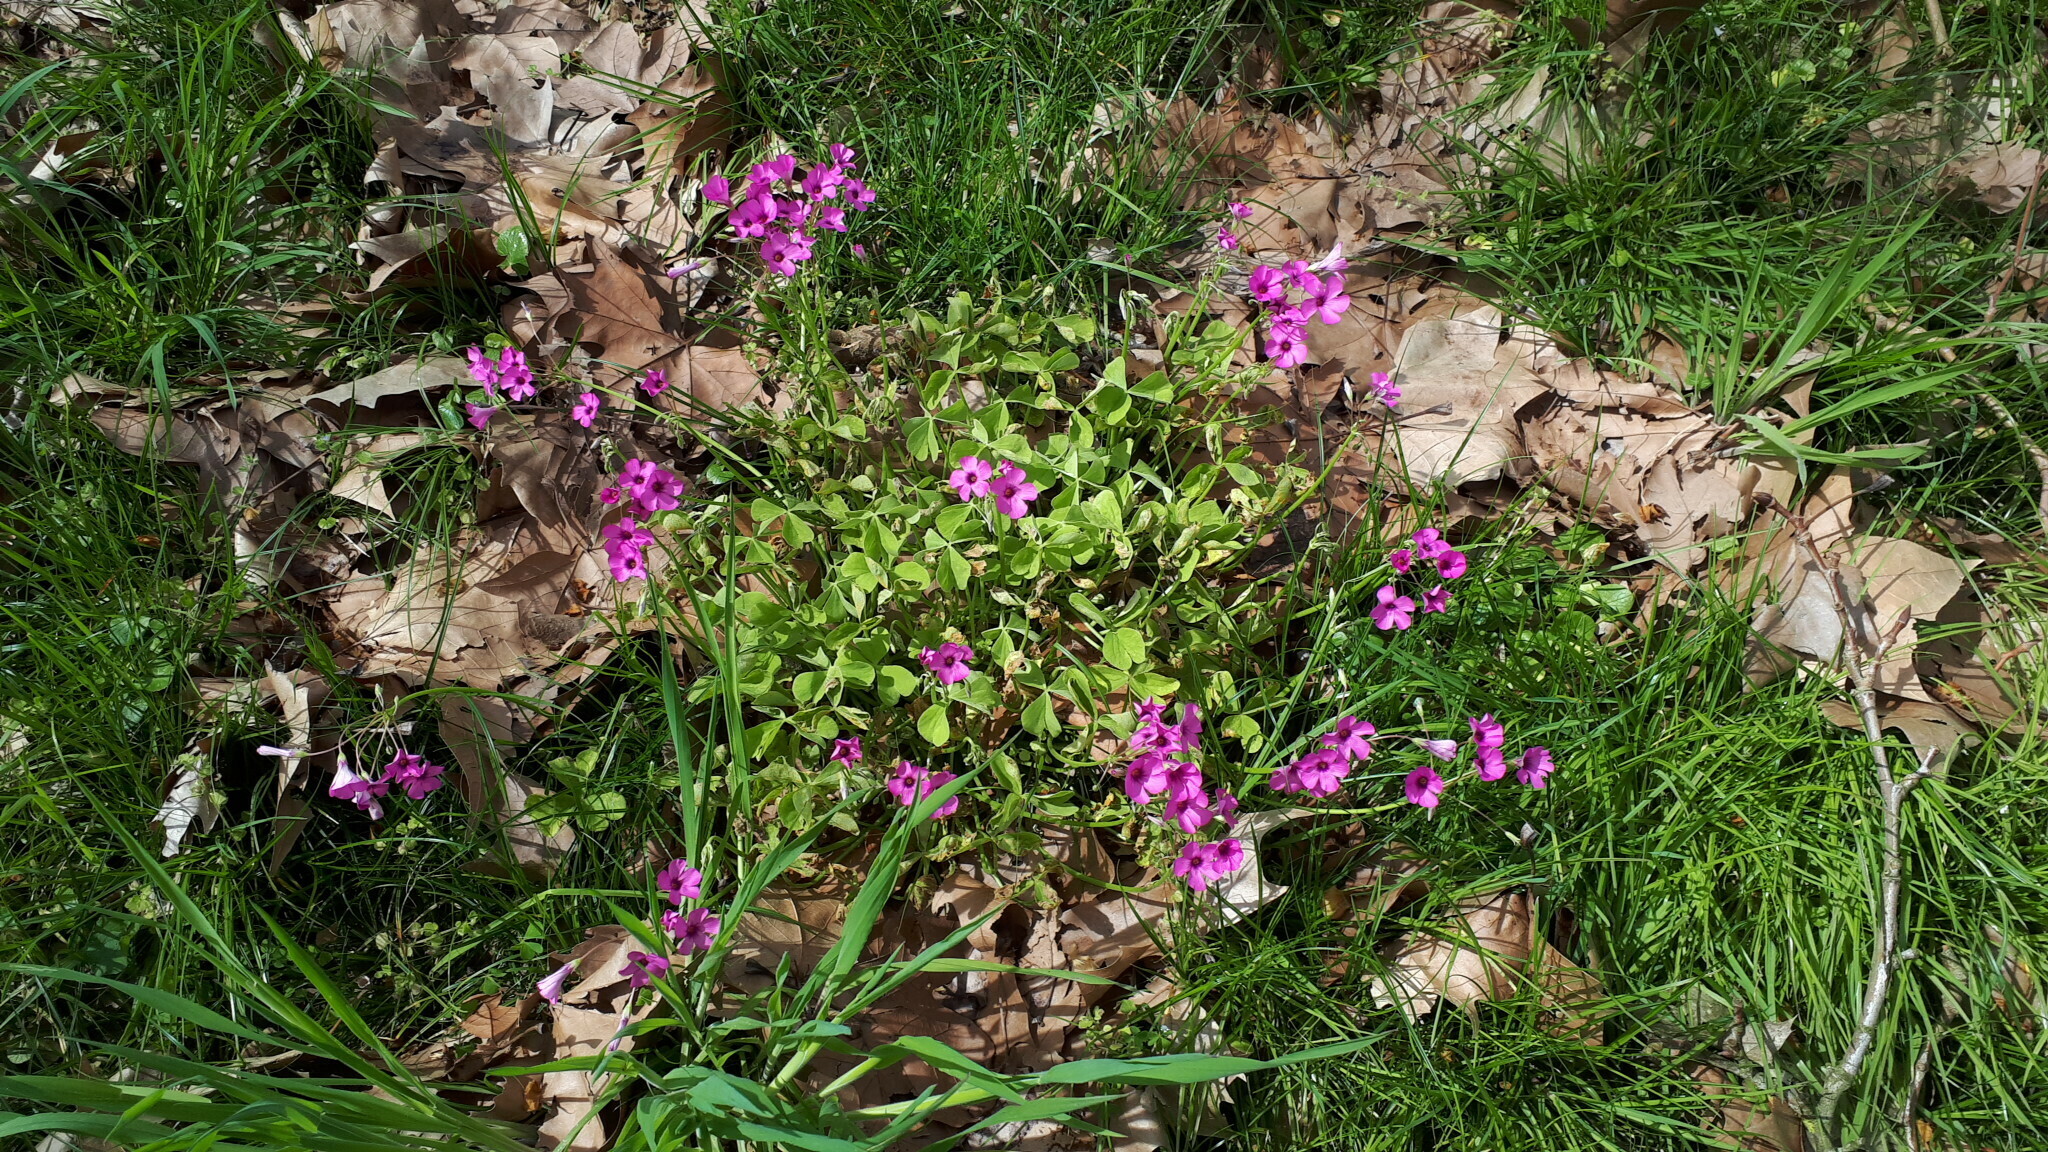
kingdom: Plantae
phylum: Tracheophyta
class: Magnoliopsida
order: Oxalidales
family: Oxalidaceae
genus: Oxalis
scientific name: Oxalis articulata
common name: Pink-sorrel
